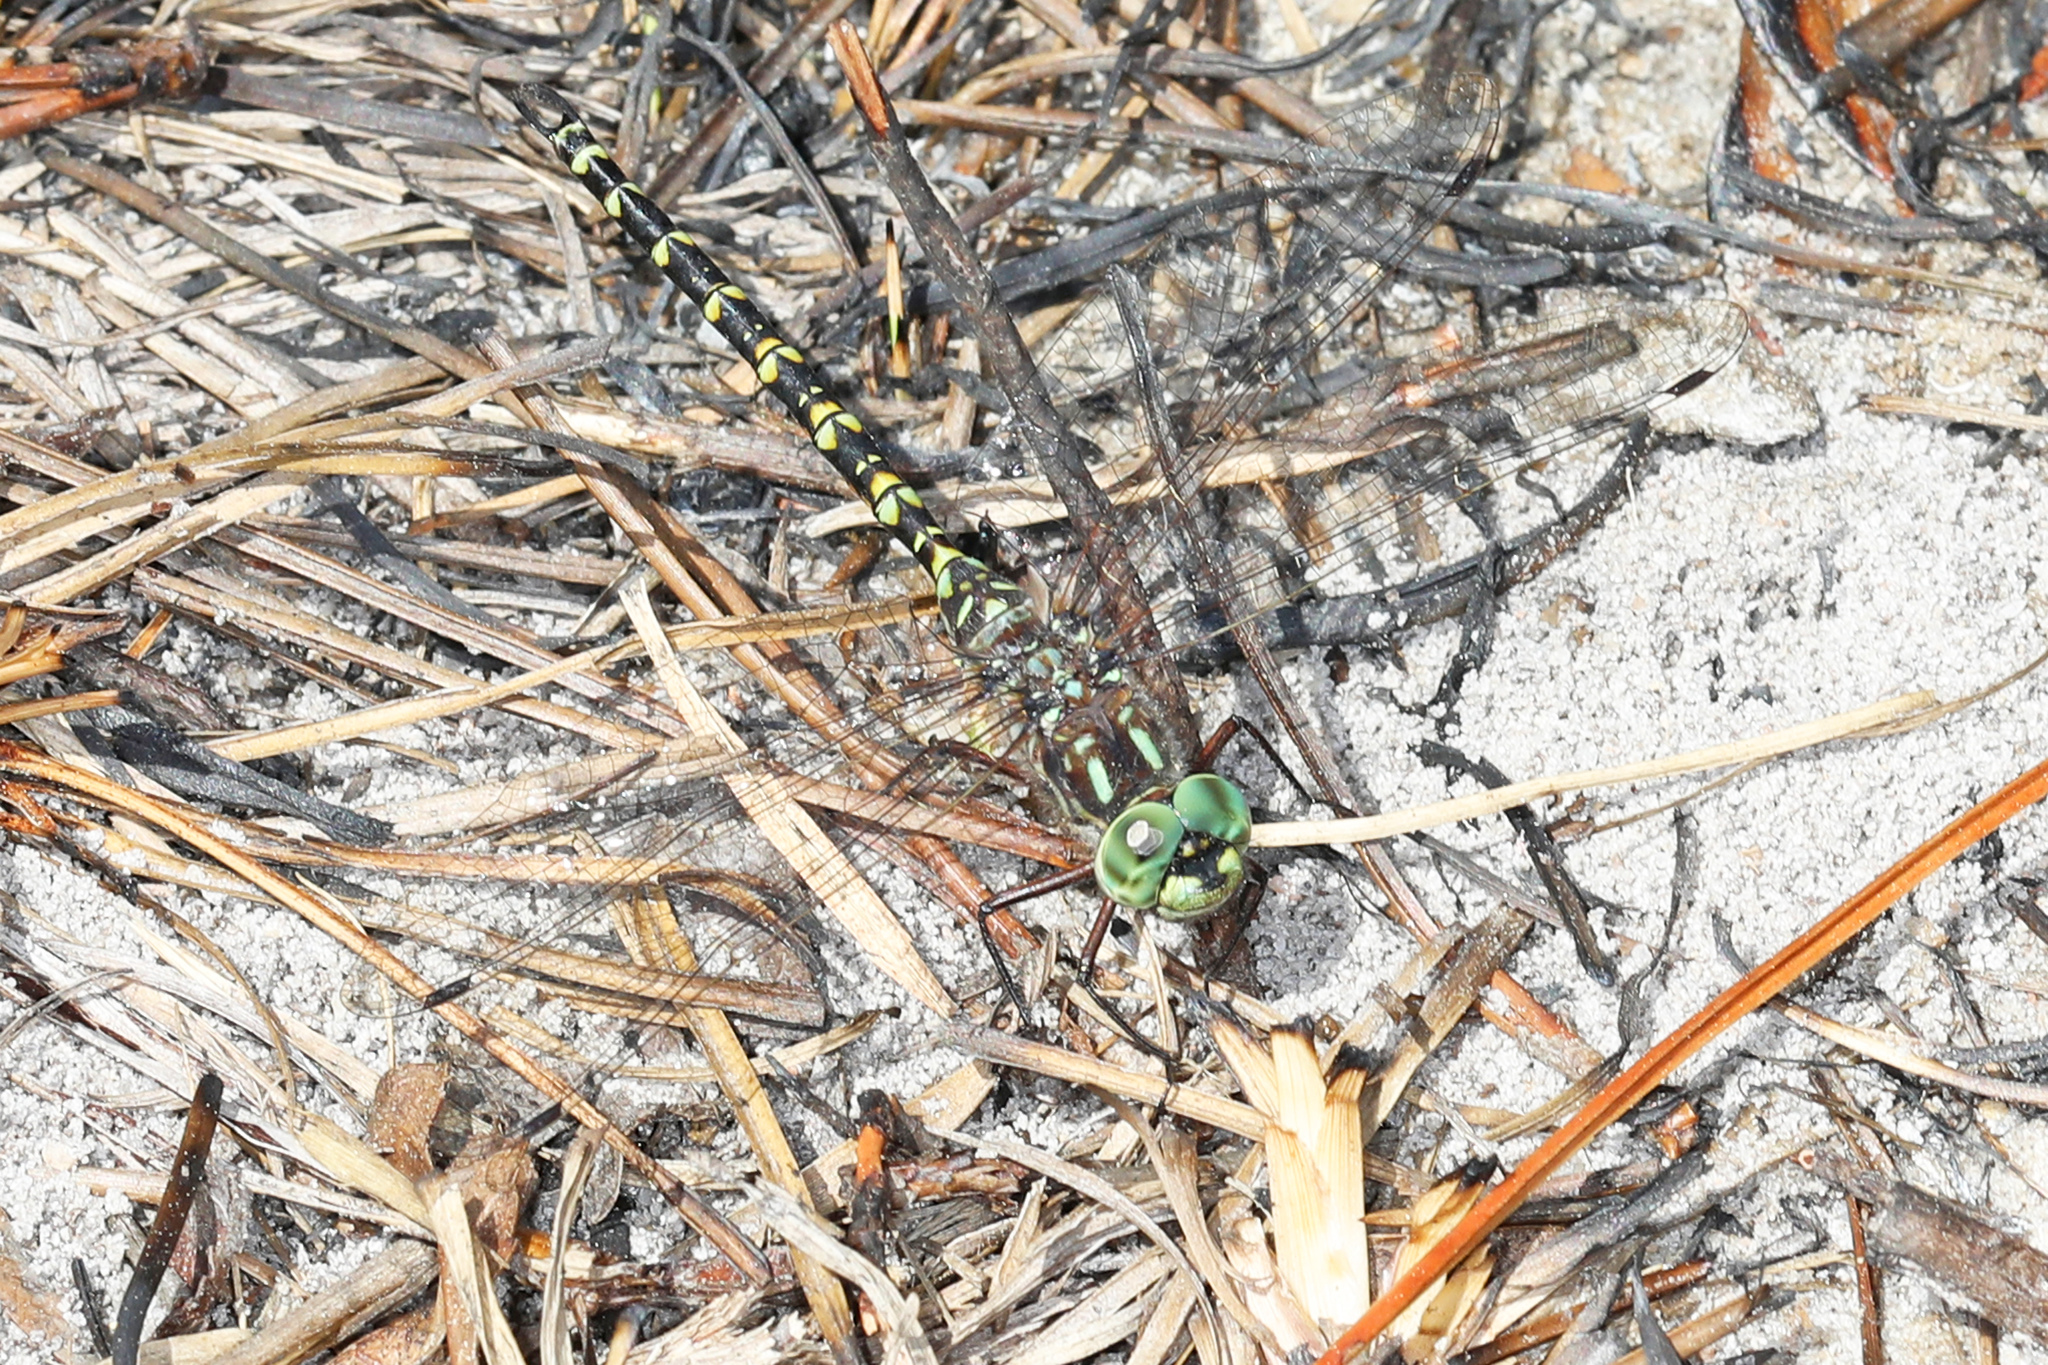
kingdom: Animalia
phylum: Arthropoda
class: Insecta
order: Odonata
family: Aeshnidae
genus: Gomphaeschna
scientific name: Gomphaeschna furcillata
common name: Harlequin darner
